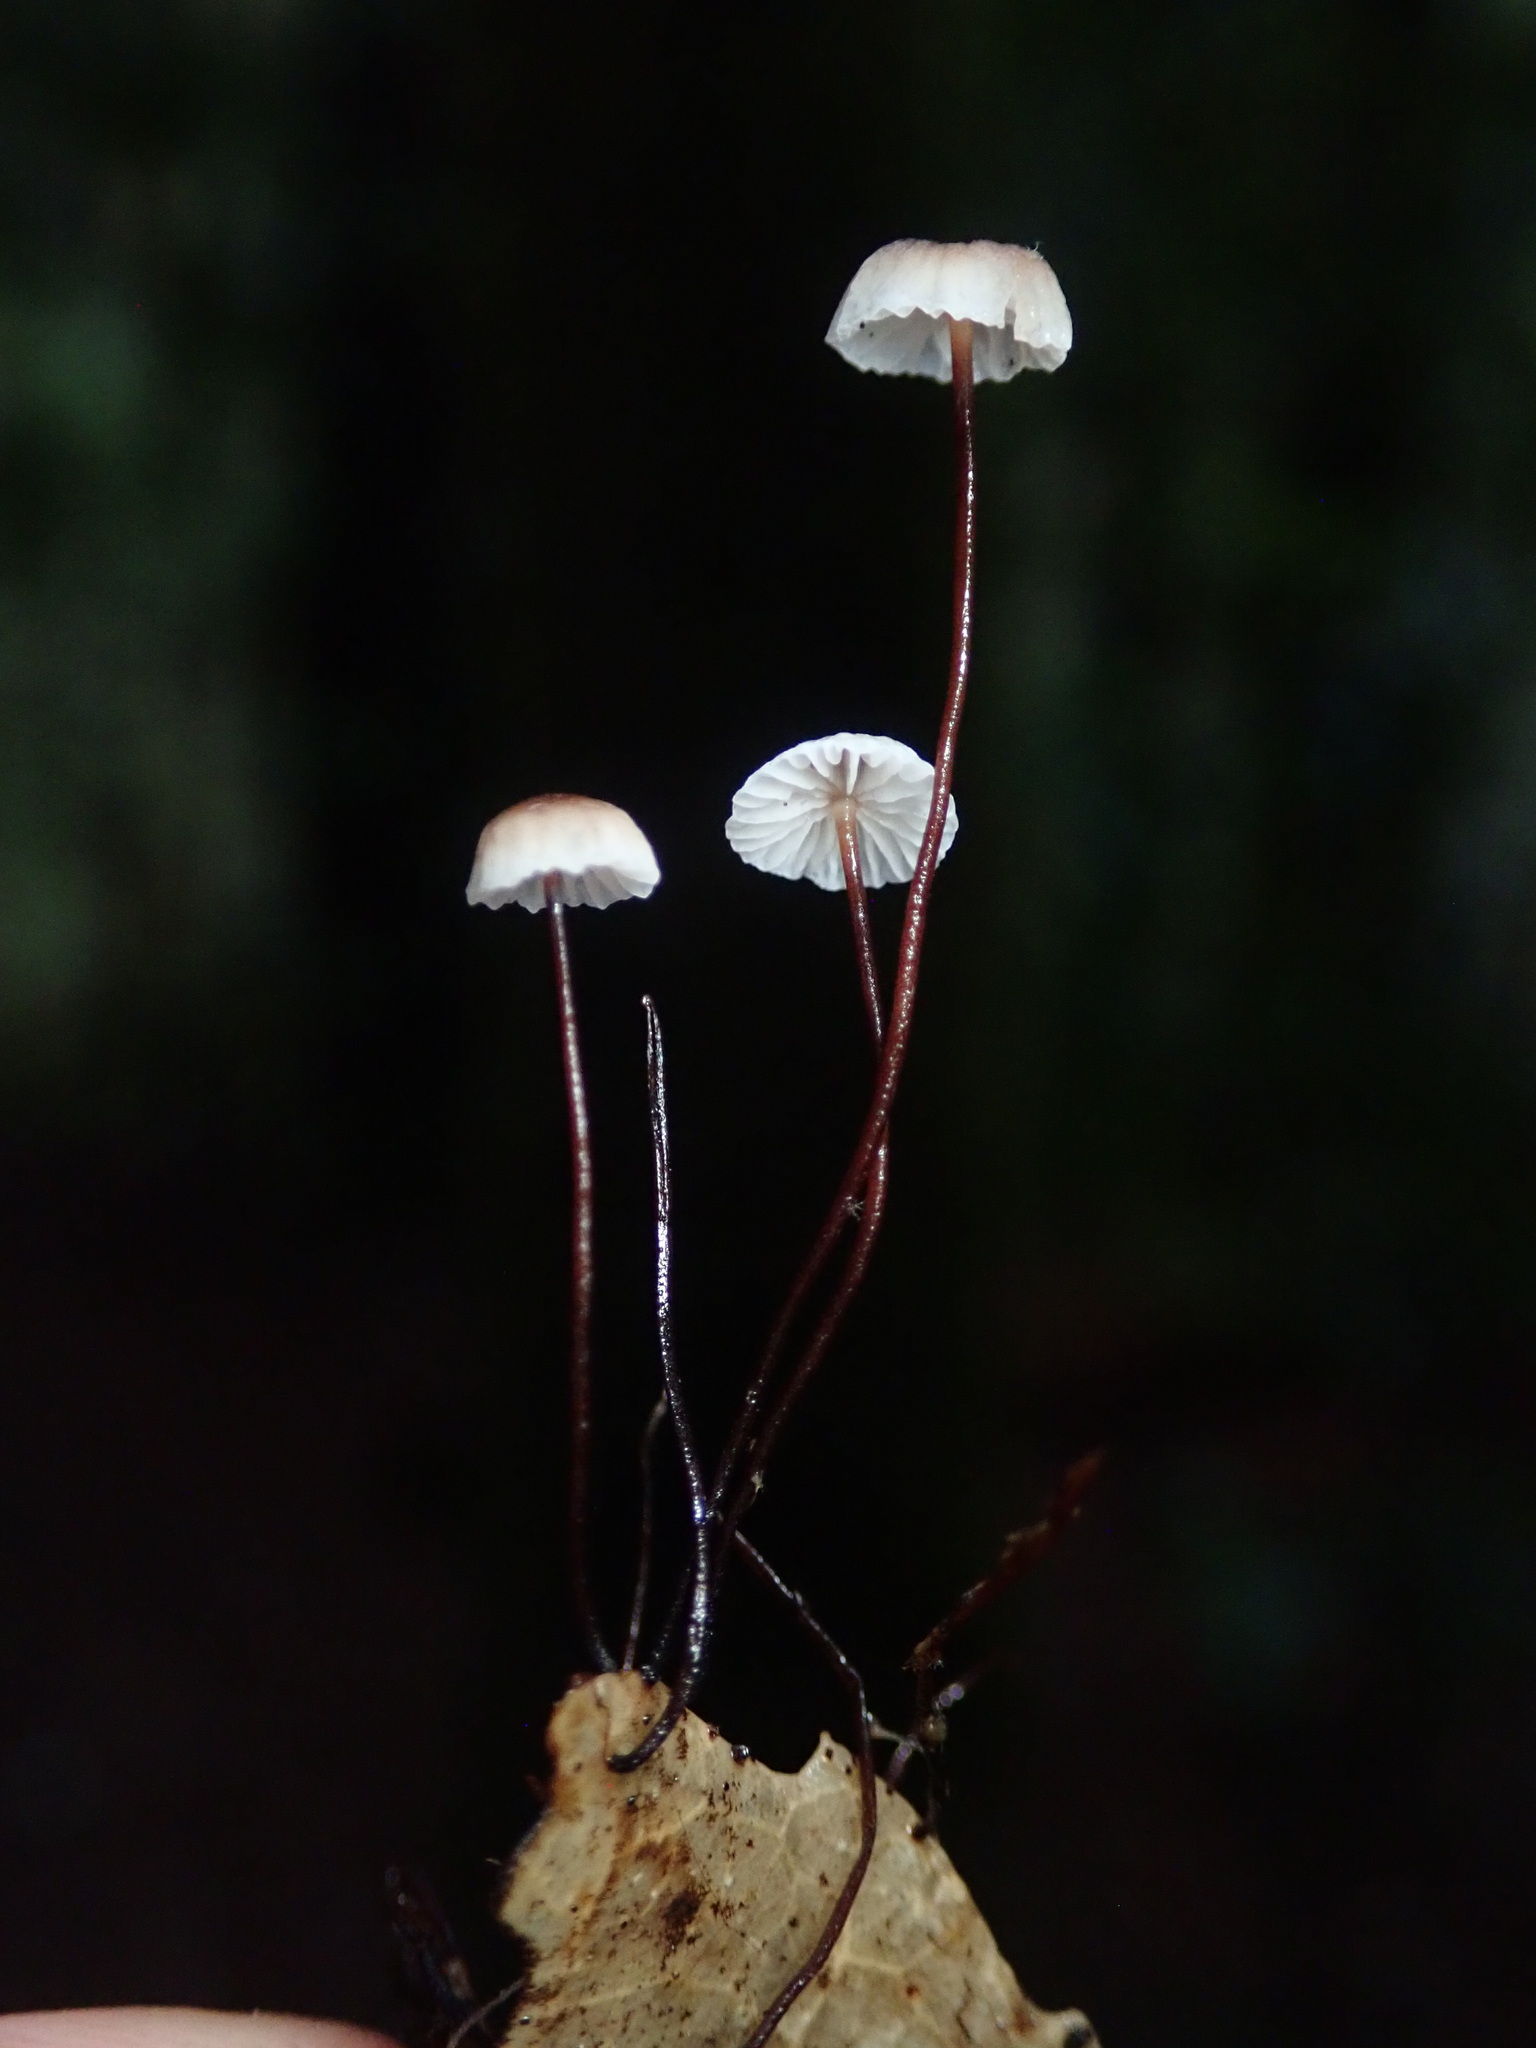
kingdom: Fungi
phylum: Basidiomycota
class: Agaricomycetes
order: Agaricales
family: Omphalotaceae
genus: Collybiopsis
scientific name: Collybiopsis quercophila
